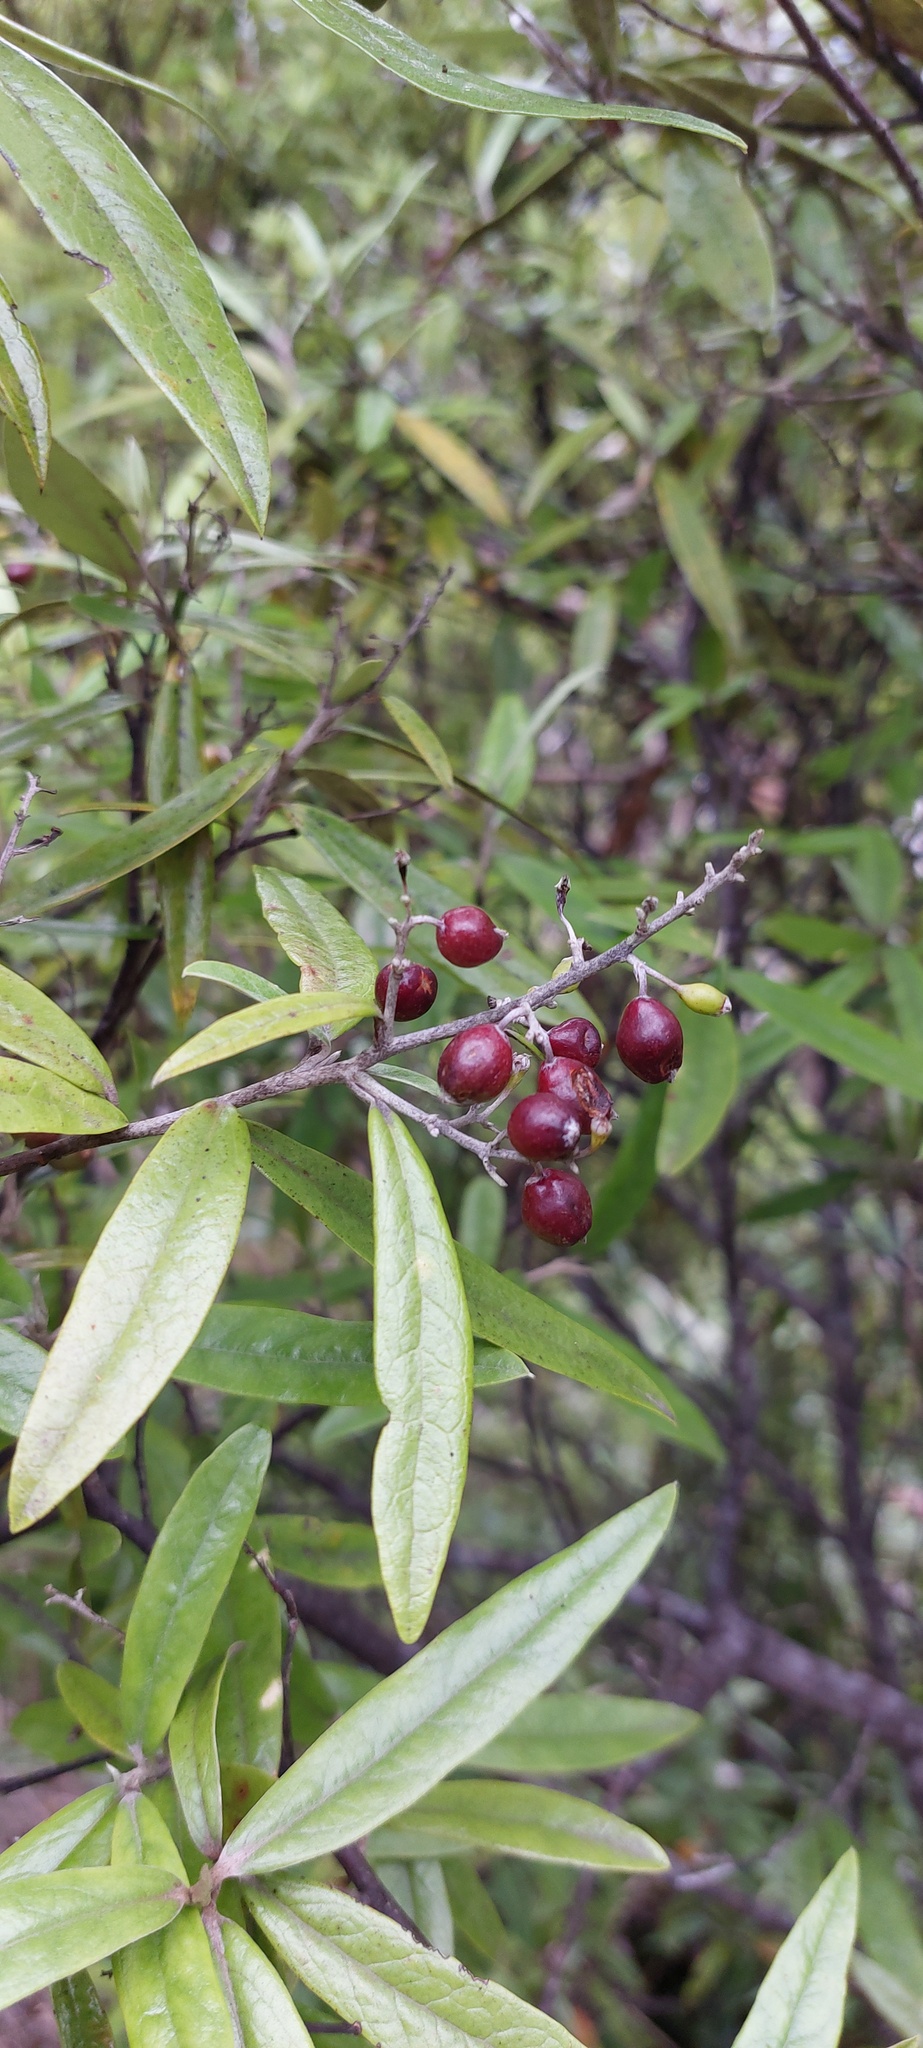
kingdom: Plantae
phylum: Tracheophyta
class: Magnoliopsida
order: Asterales
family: Argophyllaceae
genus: Corokia
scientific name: Corokia buddleioides
